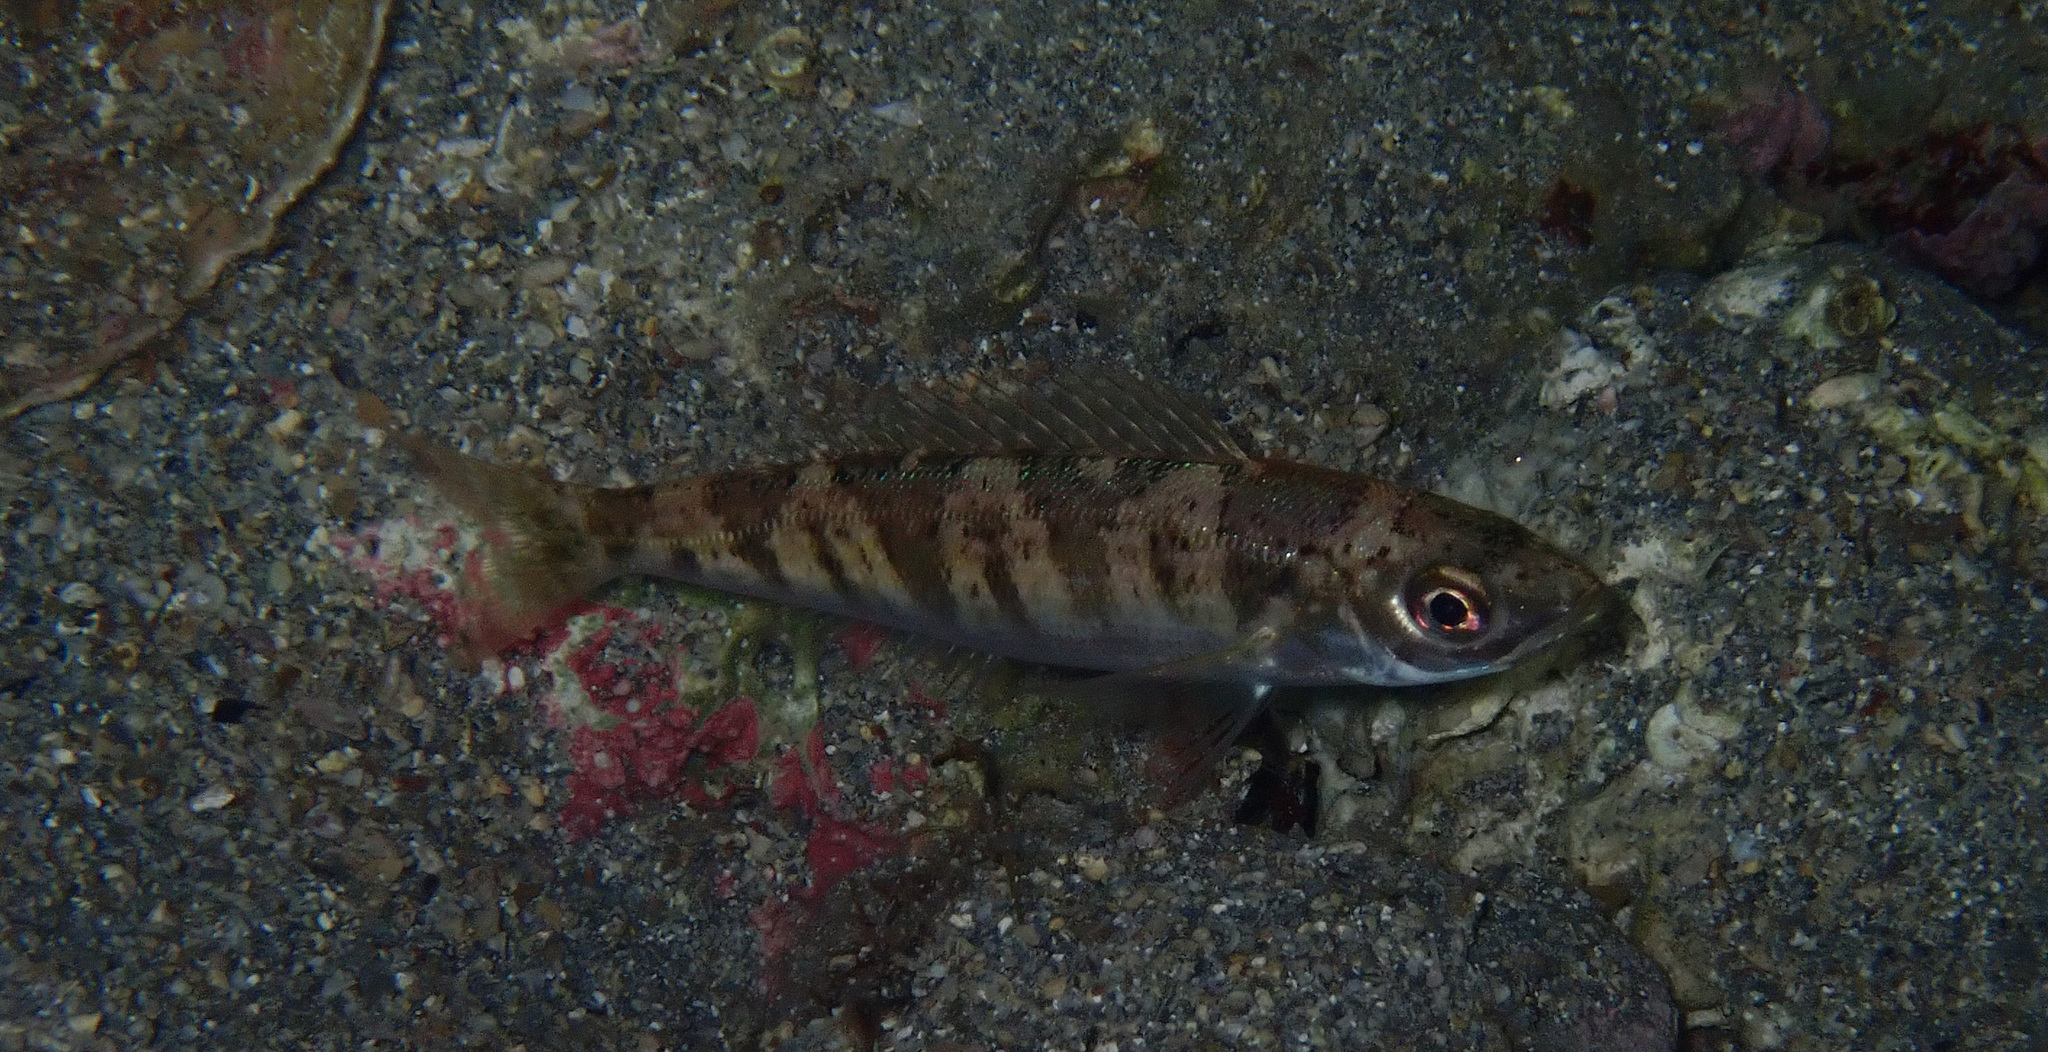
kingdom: Animalia
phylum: Chordata
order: Perciformes
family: Sparidae
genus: Spicara
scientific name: Spicara smaris
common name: Picarel
